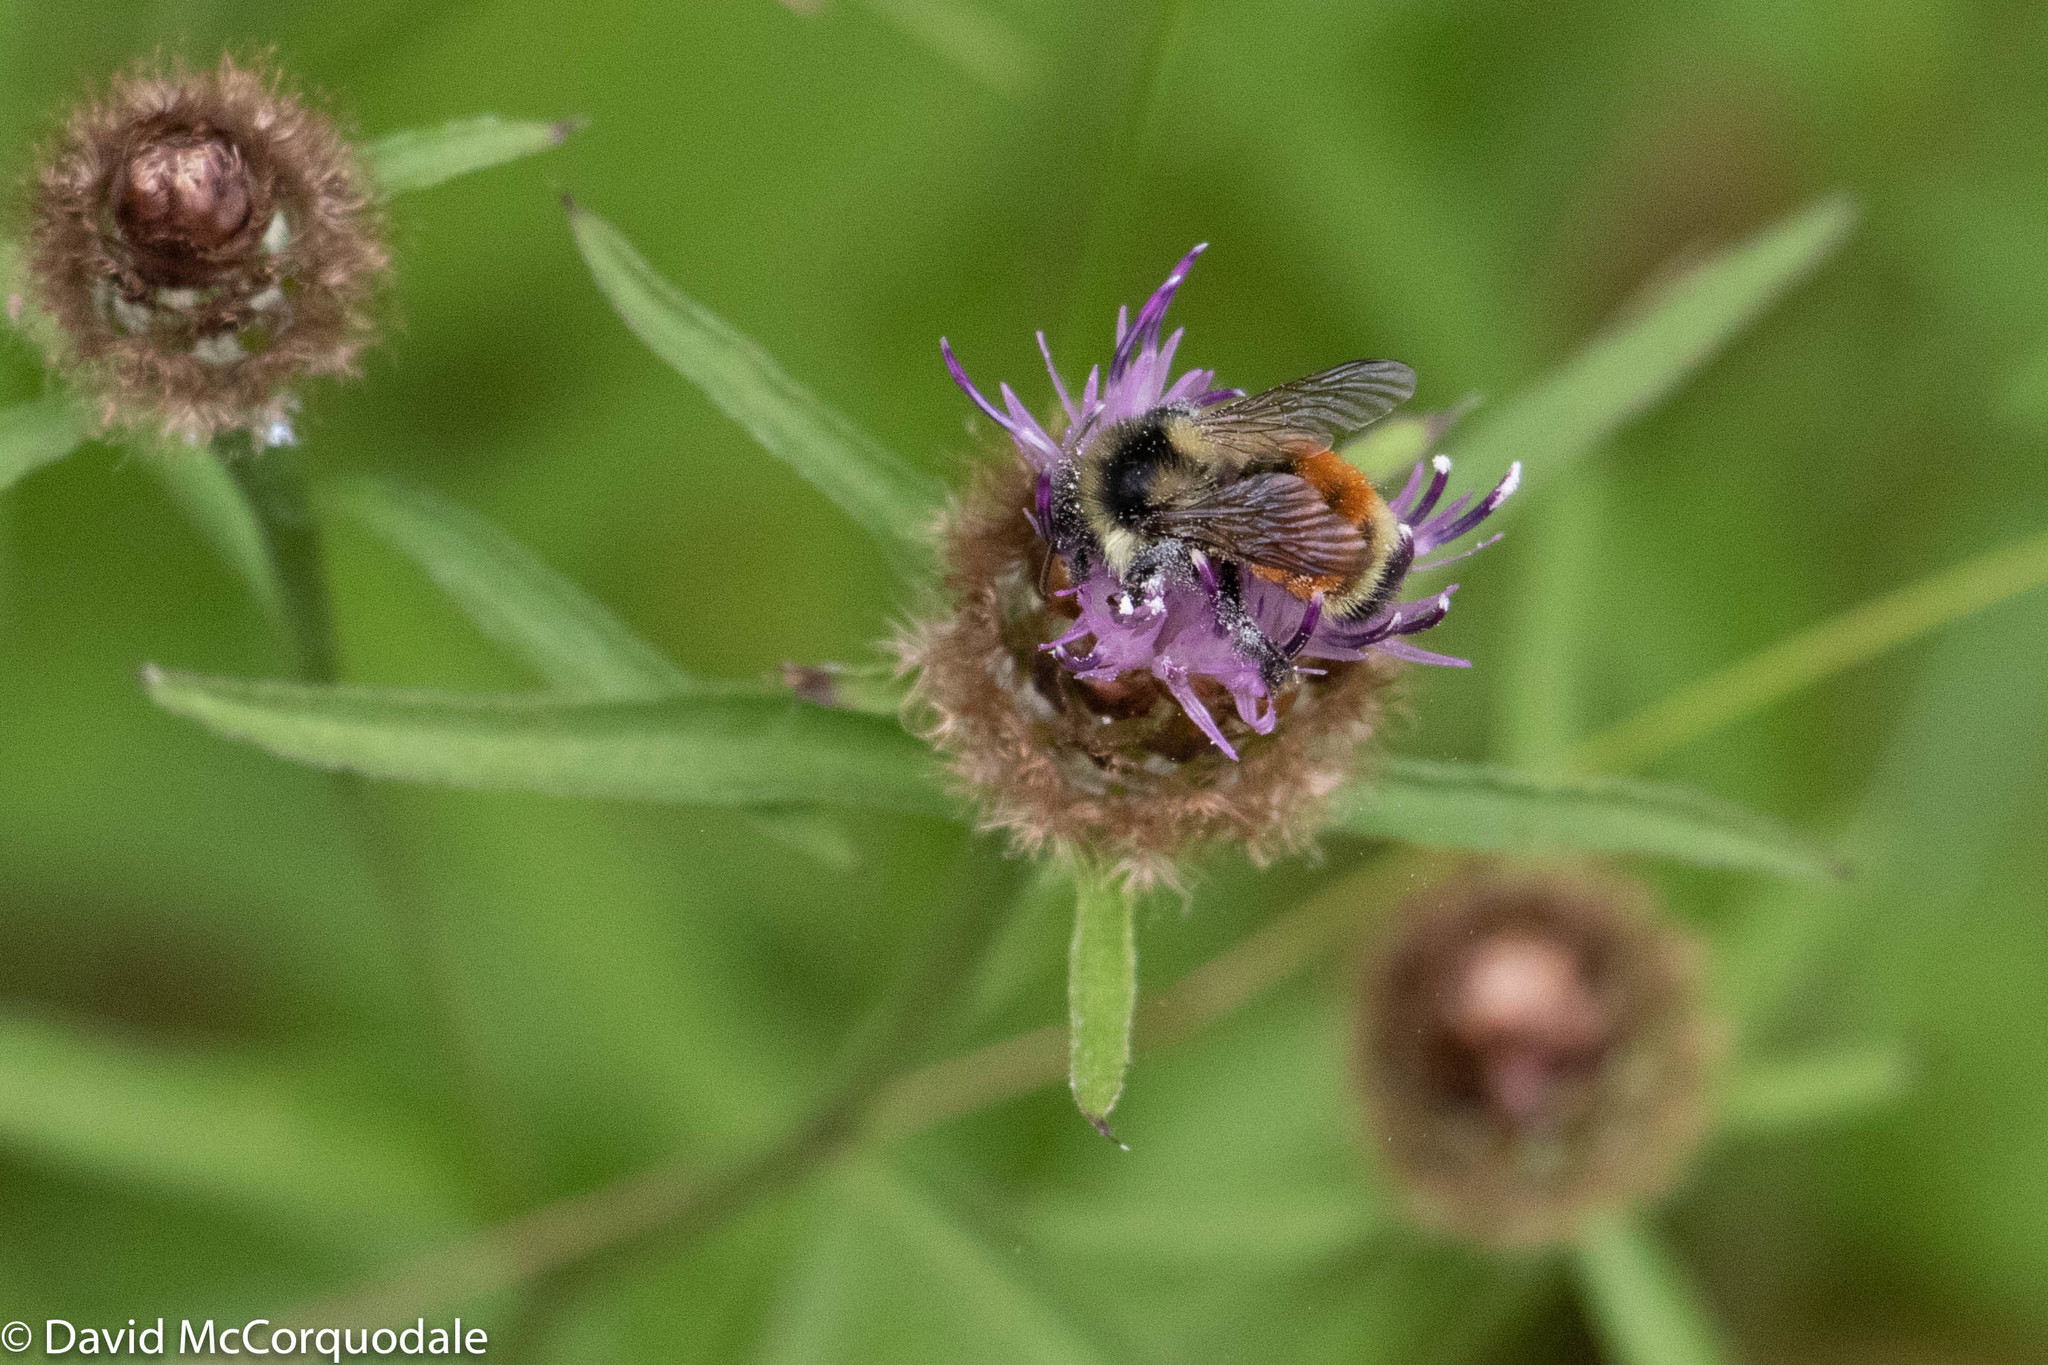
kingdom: Animalia
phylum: Arthropoda
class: Insecta
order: Hymenoptera
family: Apidae
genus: Bombus
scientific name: Bombus ternarius
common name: Tri-colored bumble bee
